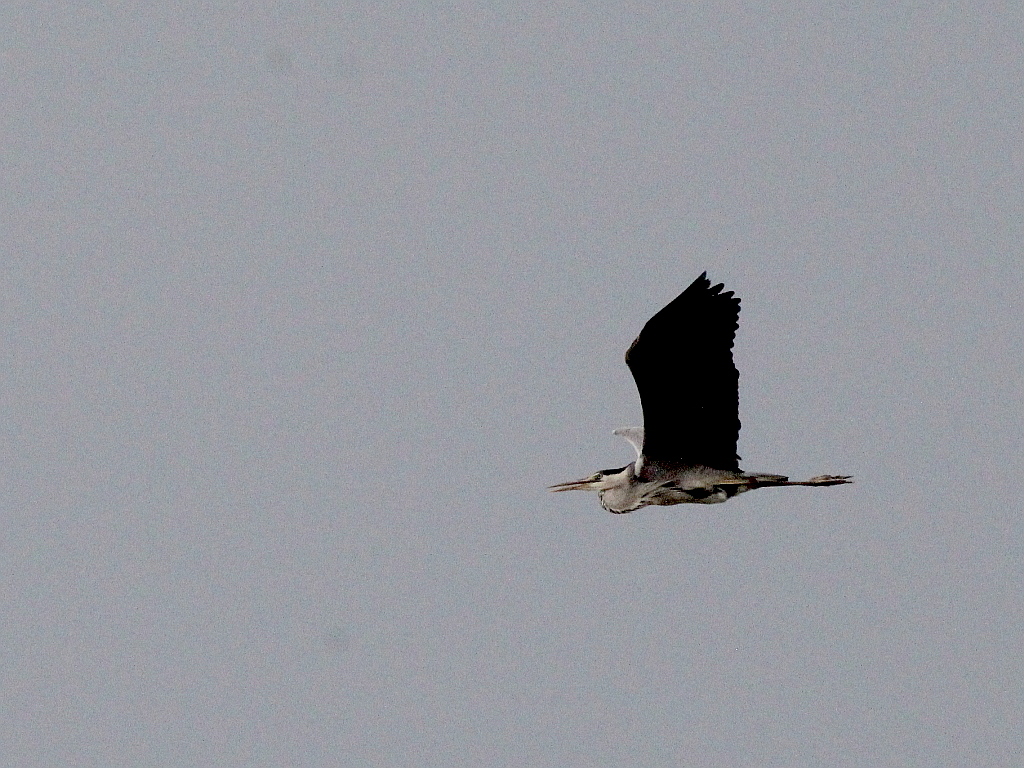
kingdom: Animalia
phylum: Chordata
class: Aves
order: Pelecaniformes
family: Ardeidae
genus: Ardea
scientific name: Ardea cinerea
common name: Grey heron
